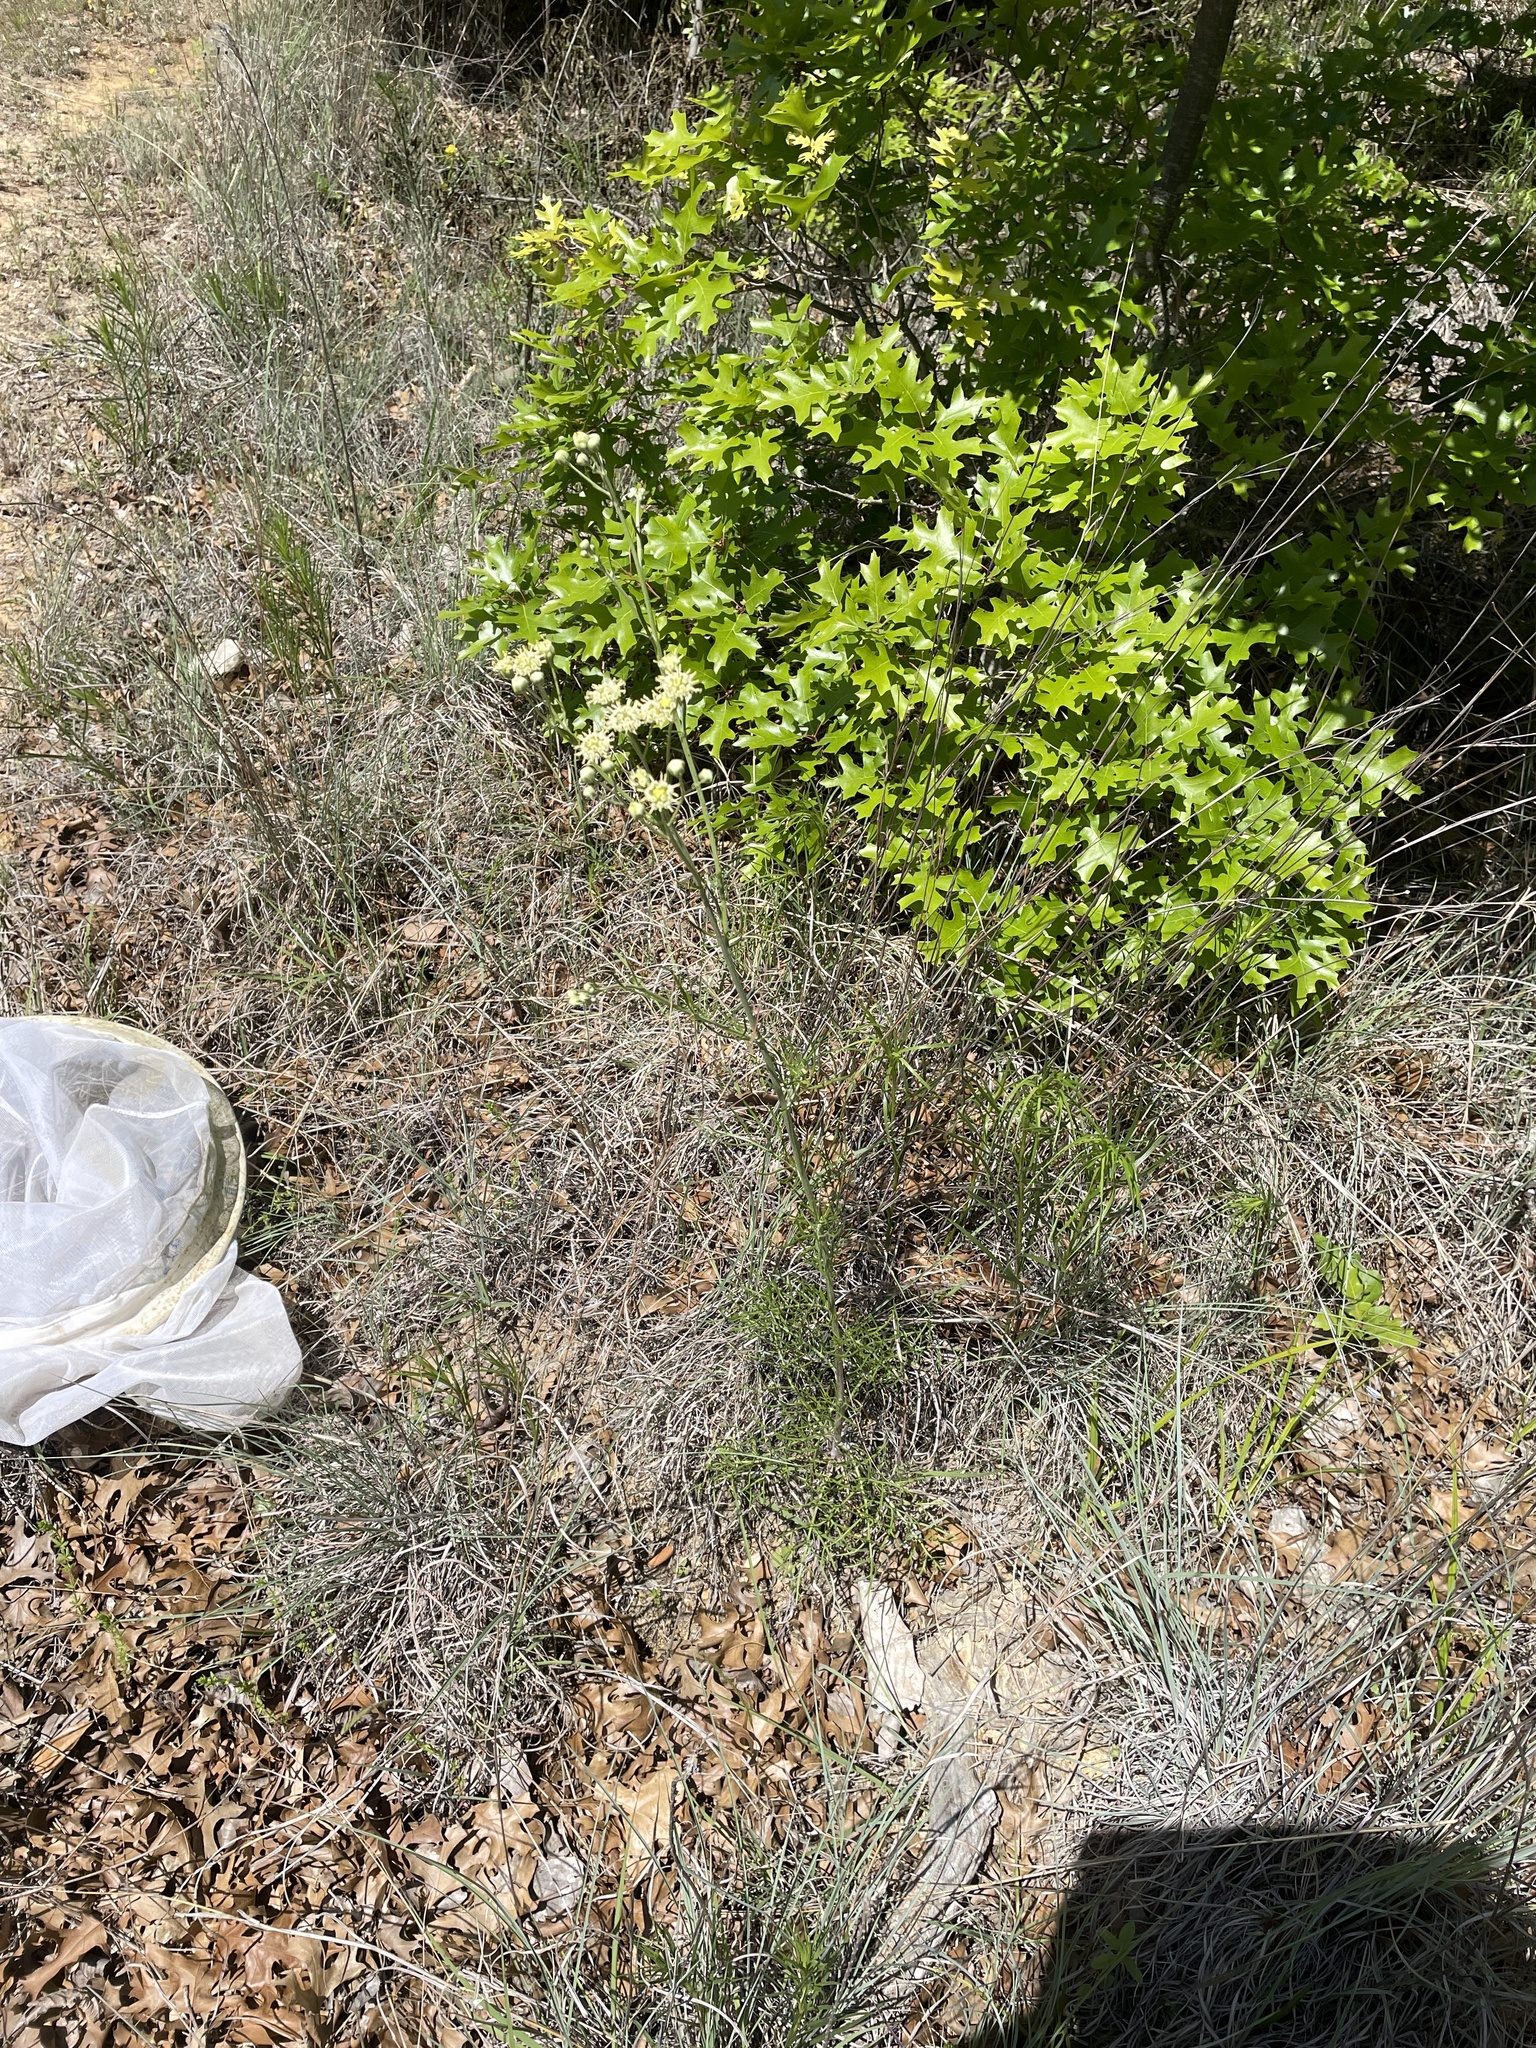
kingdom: Plantae
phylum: Tracheophyta
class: Magnoliopsida
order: Asterales
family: Asteraceae
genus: Hymenopappus
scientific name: Hymenopappus tenuifolius
